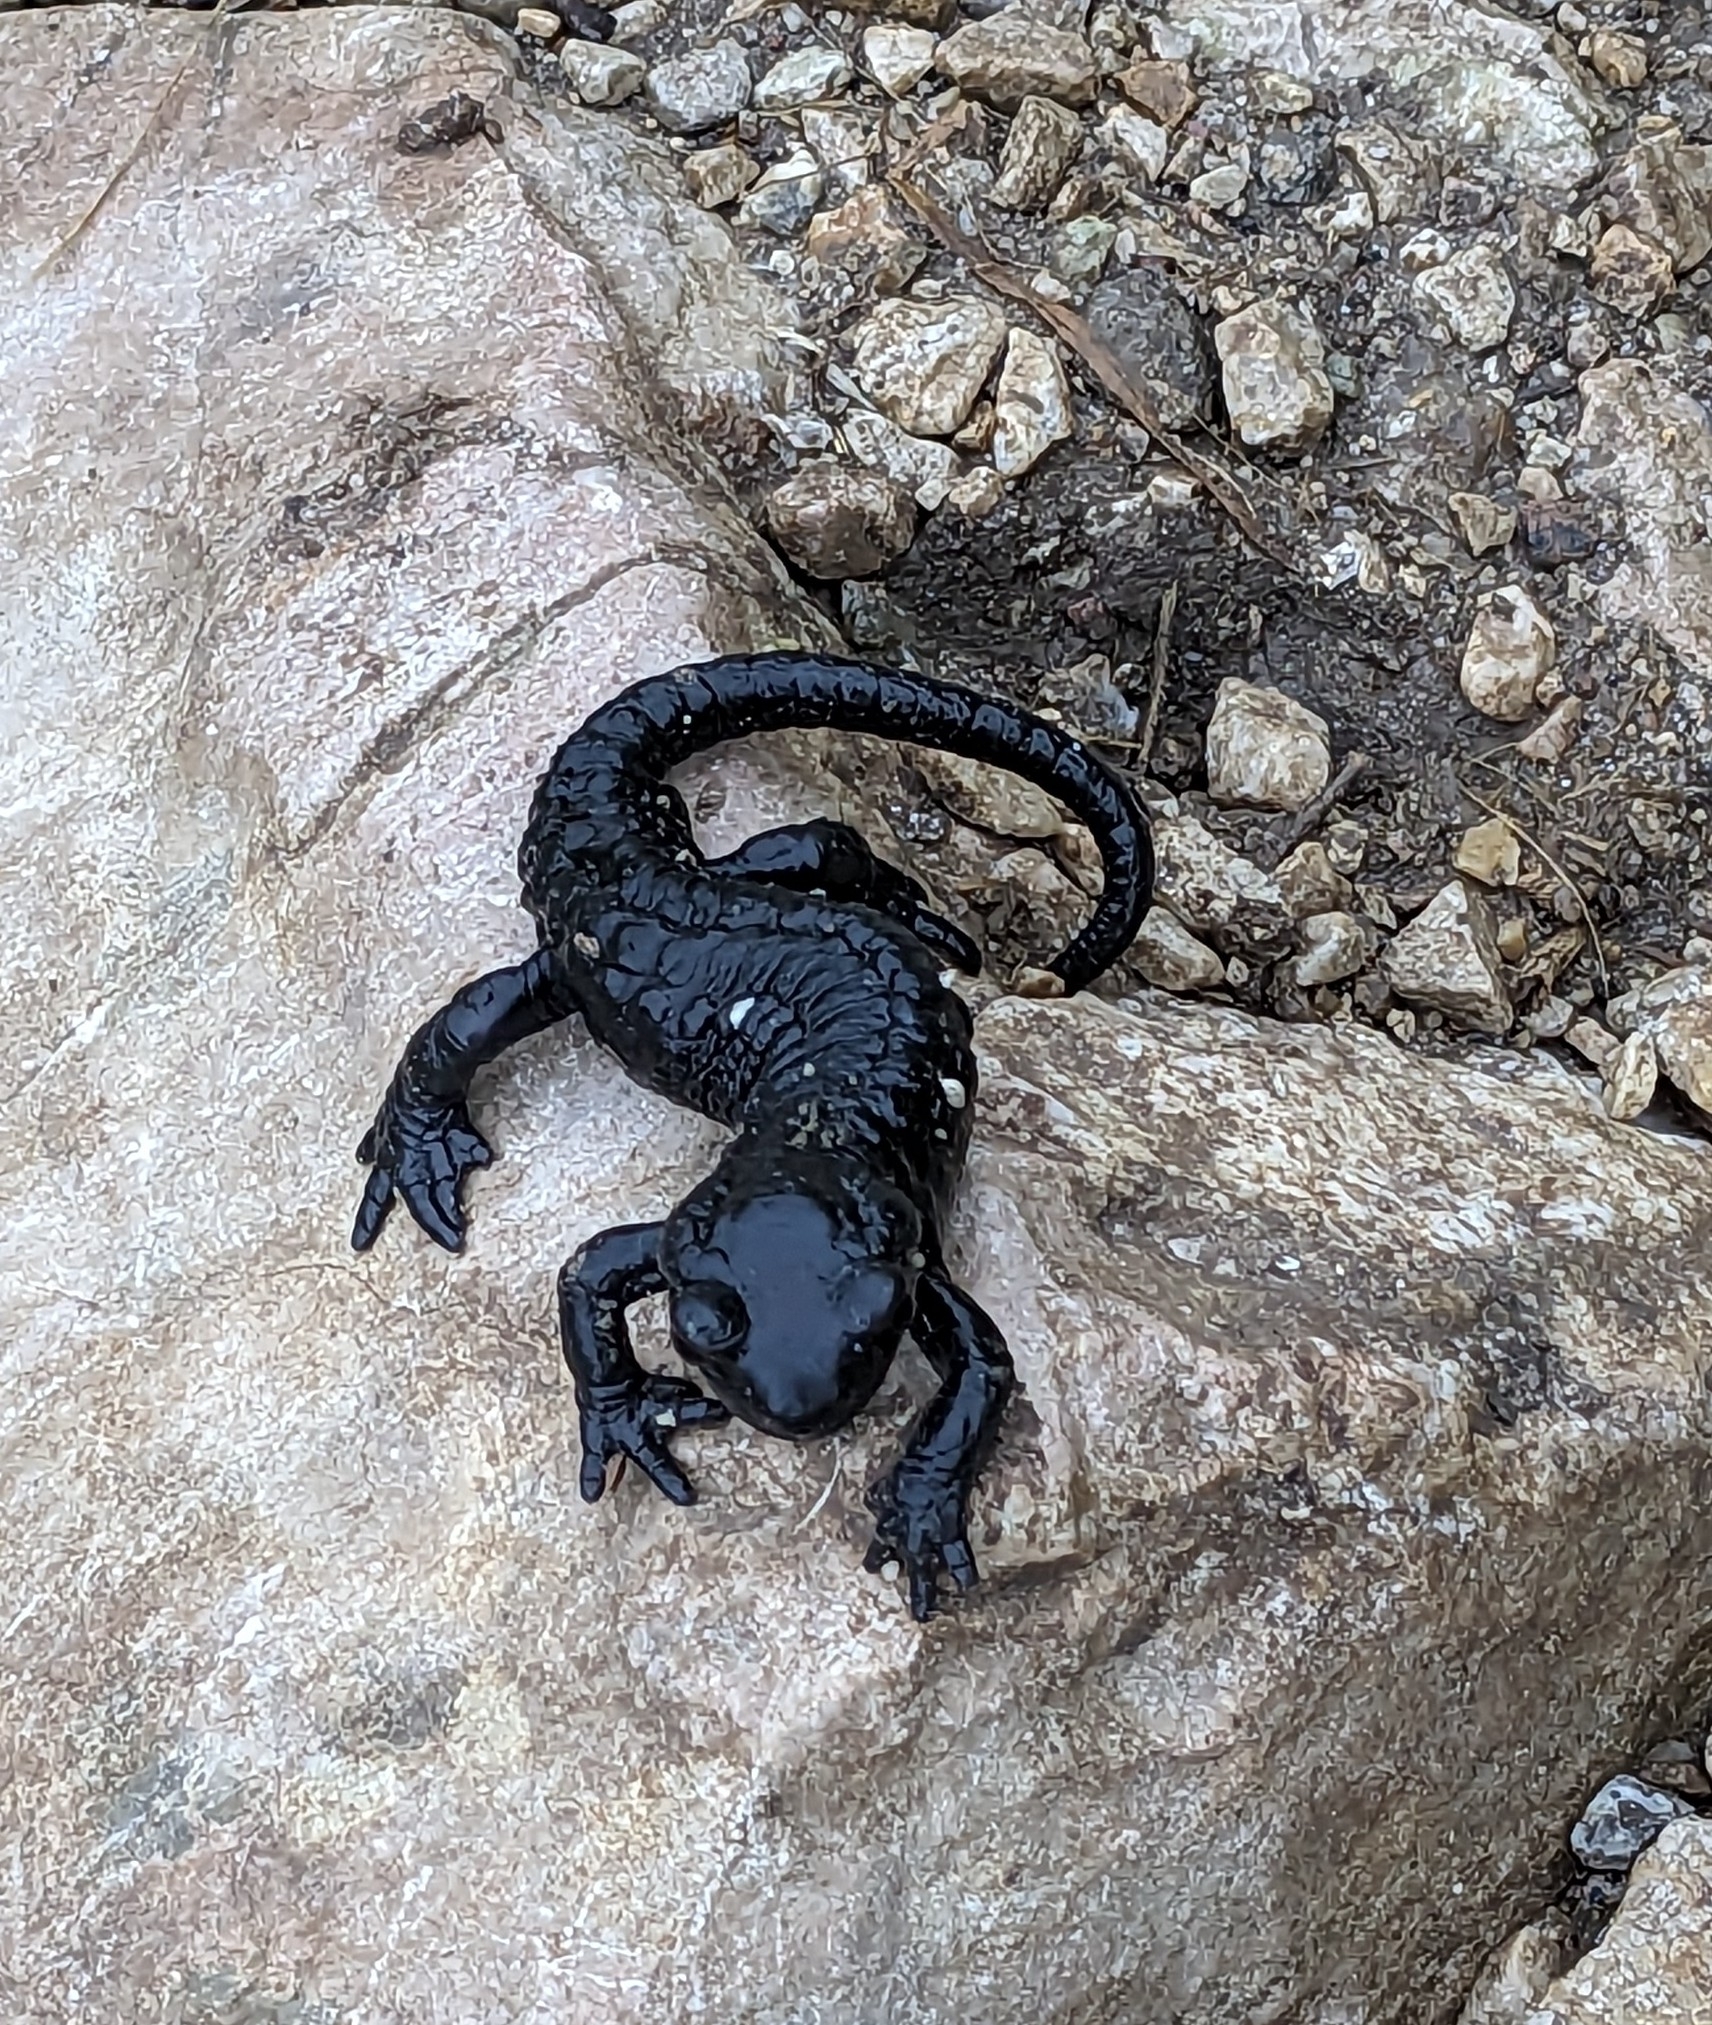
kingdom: Animalia
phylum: Chordata
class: Amphibia
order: Caudata
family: Salamandridae
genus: Salamandra
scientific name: Salamandra atra
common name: Alpine salamander
